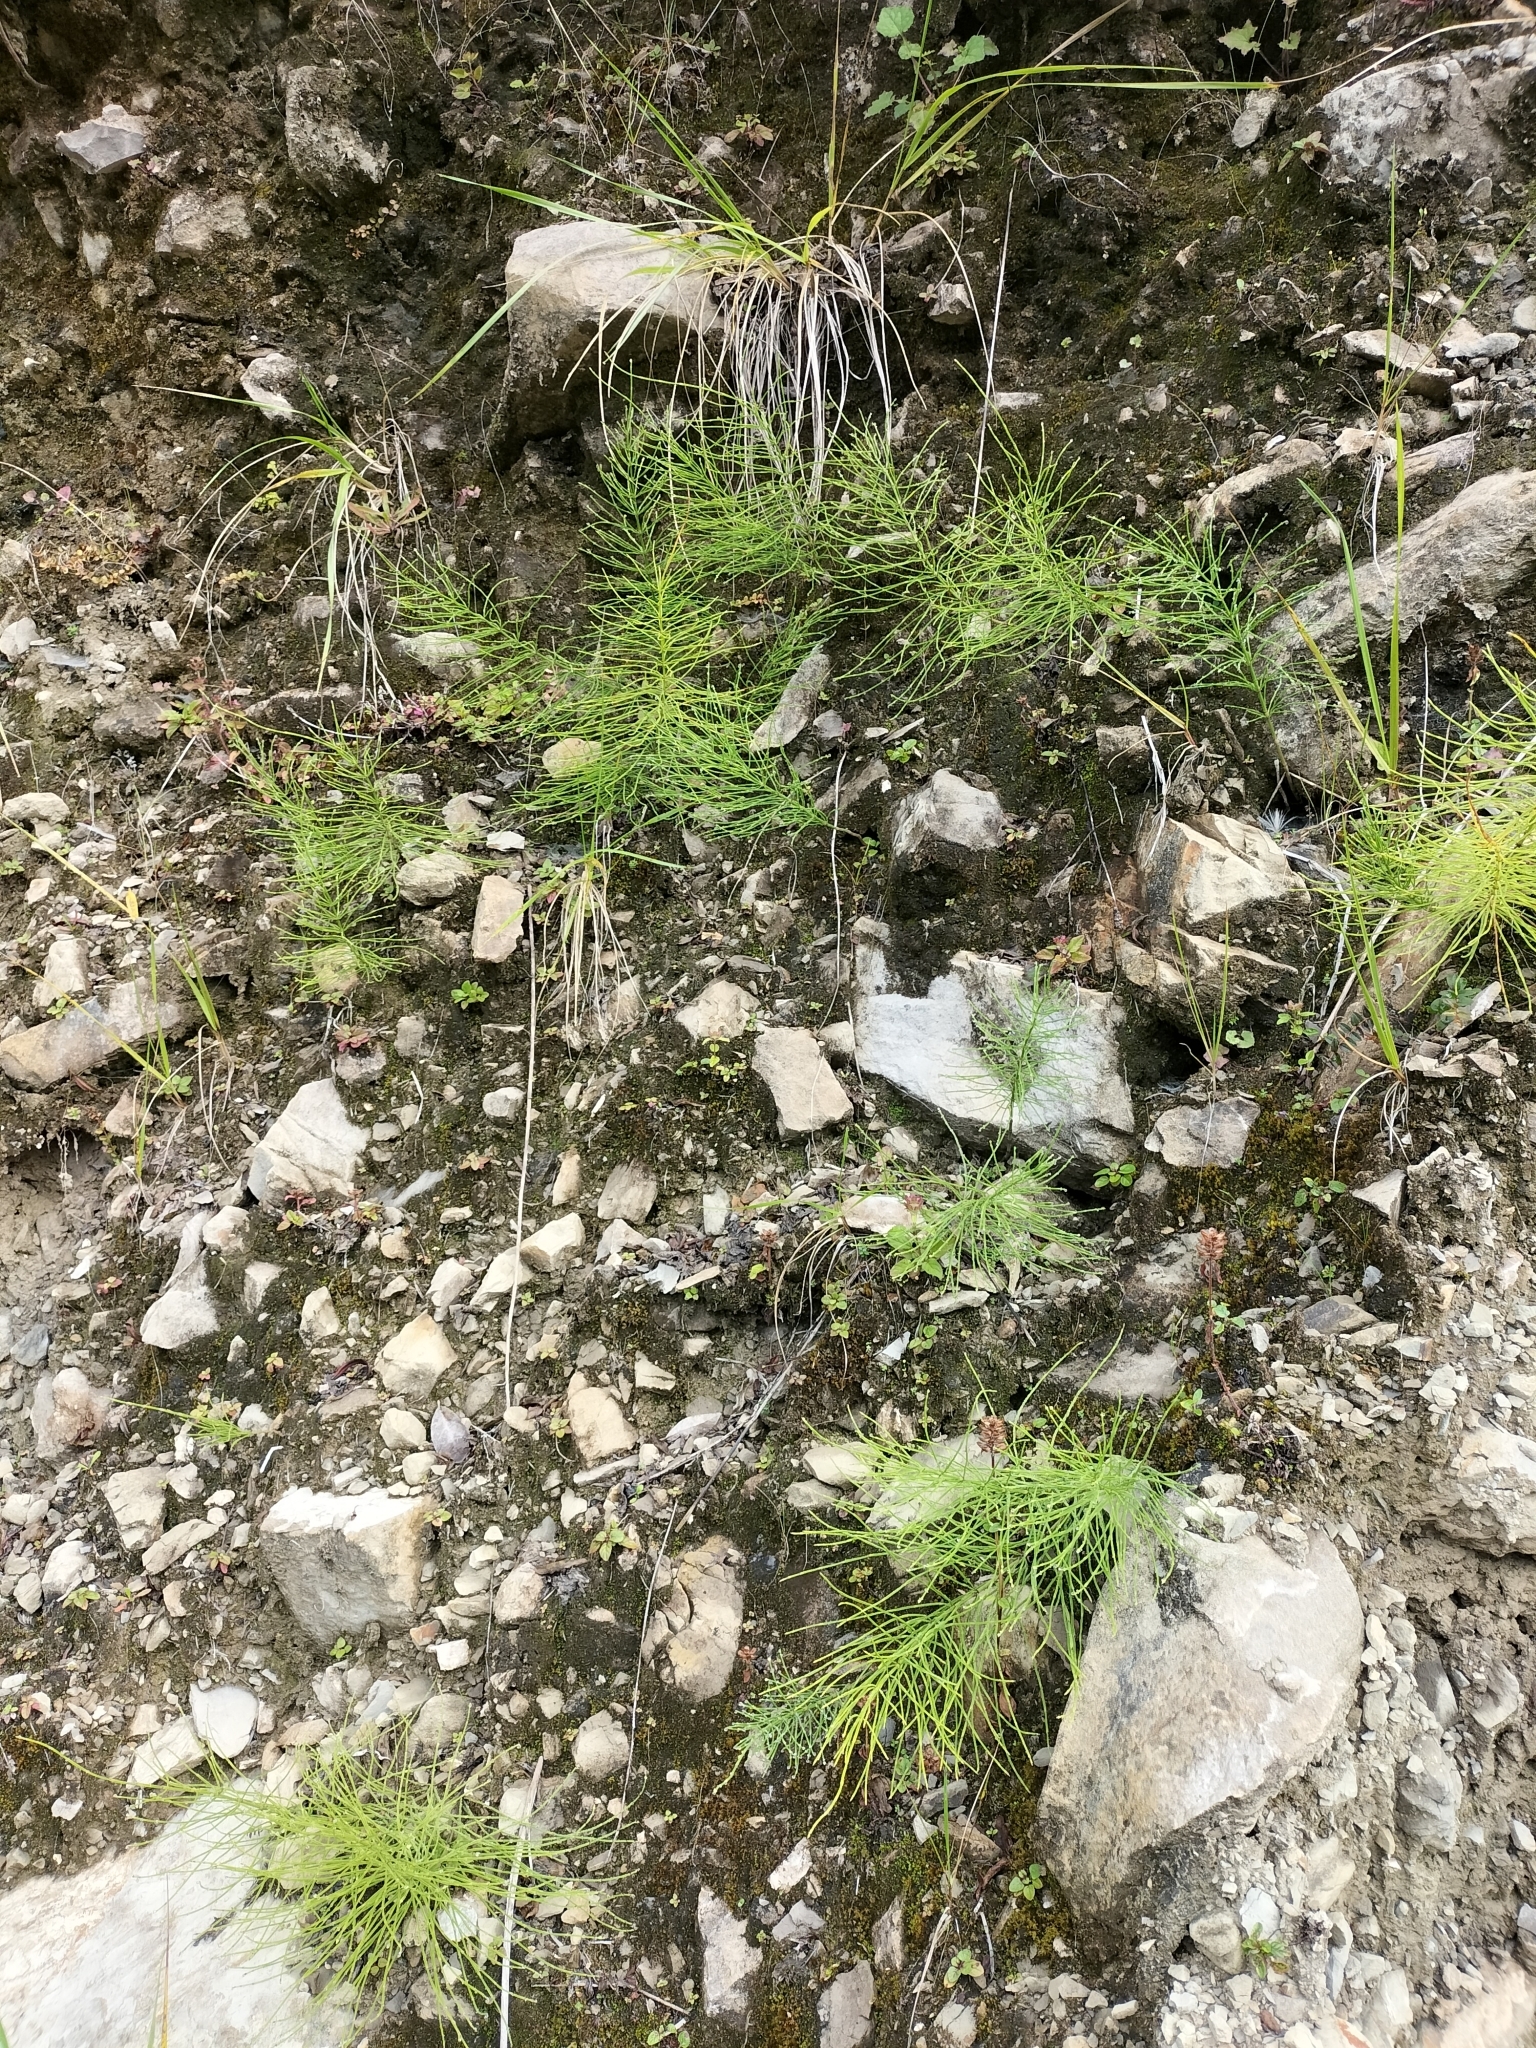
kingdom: Plantae
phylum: Tracheophyta
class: Polypodiopsida
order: Equisetales
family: Equisetaceae
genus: Equisetum
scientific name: Equisetum arvense
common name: Field horsetail
